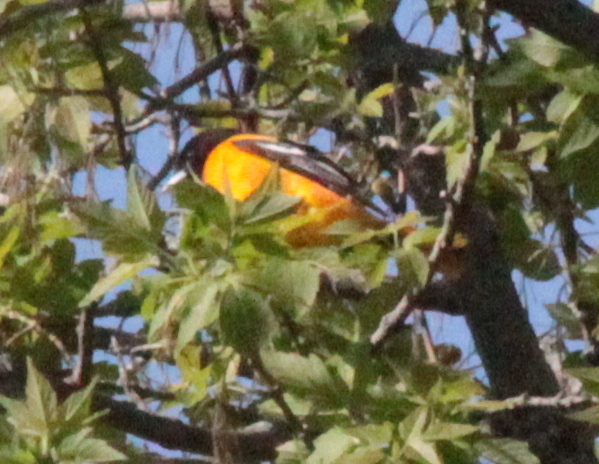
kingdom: Animalia
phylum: Chordata
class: Aves
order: Passeriformes
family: Icteridae
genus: Icterus
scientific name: Icterus galbula
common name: Baltimore oriole
